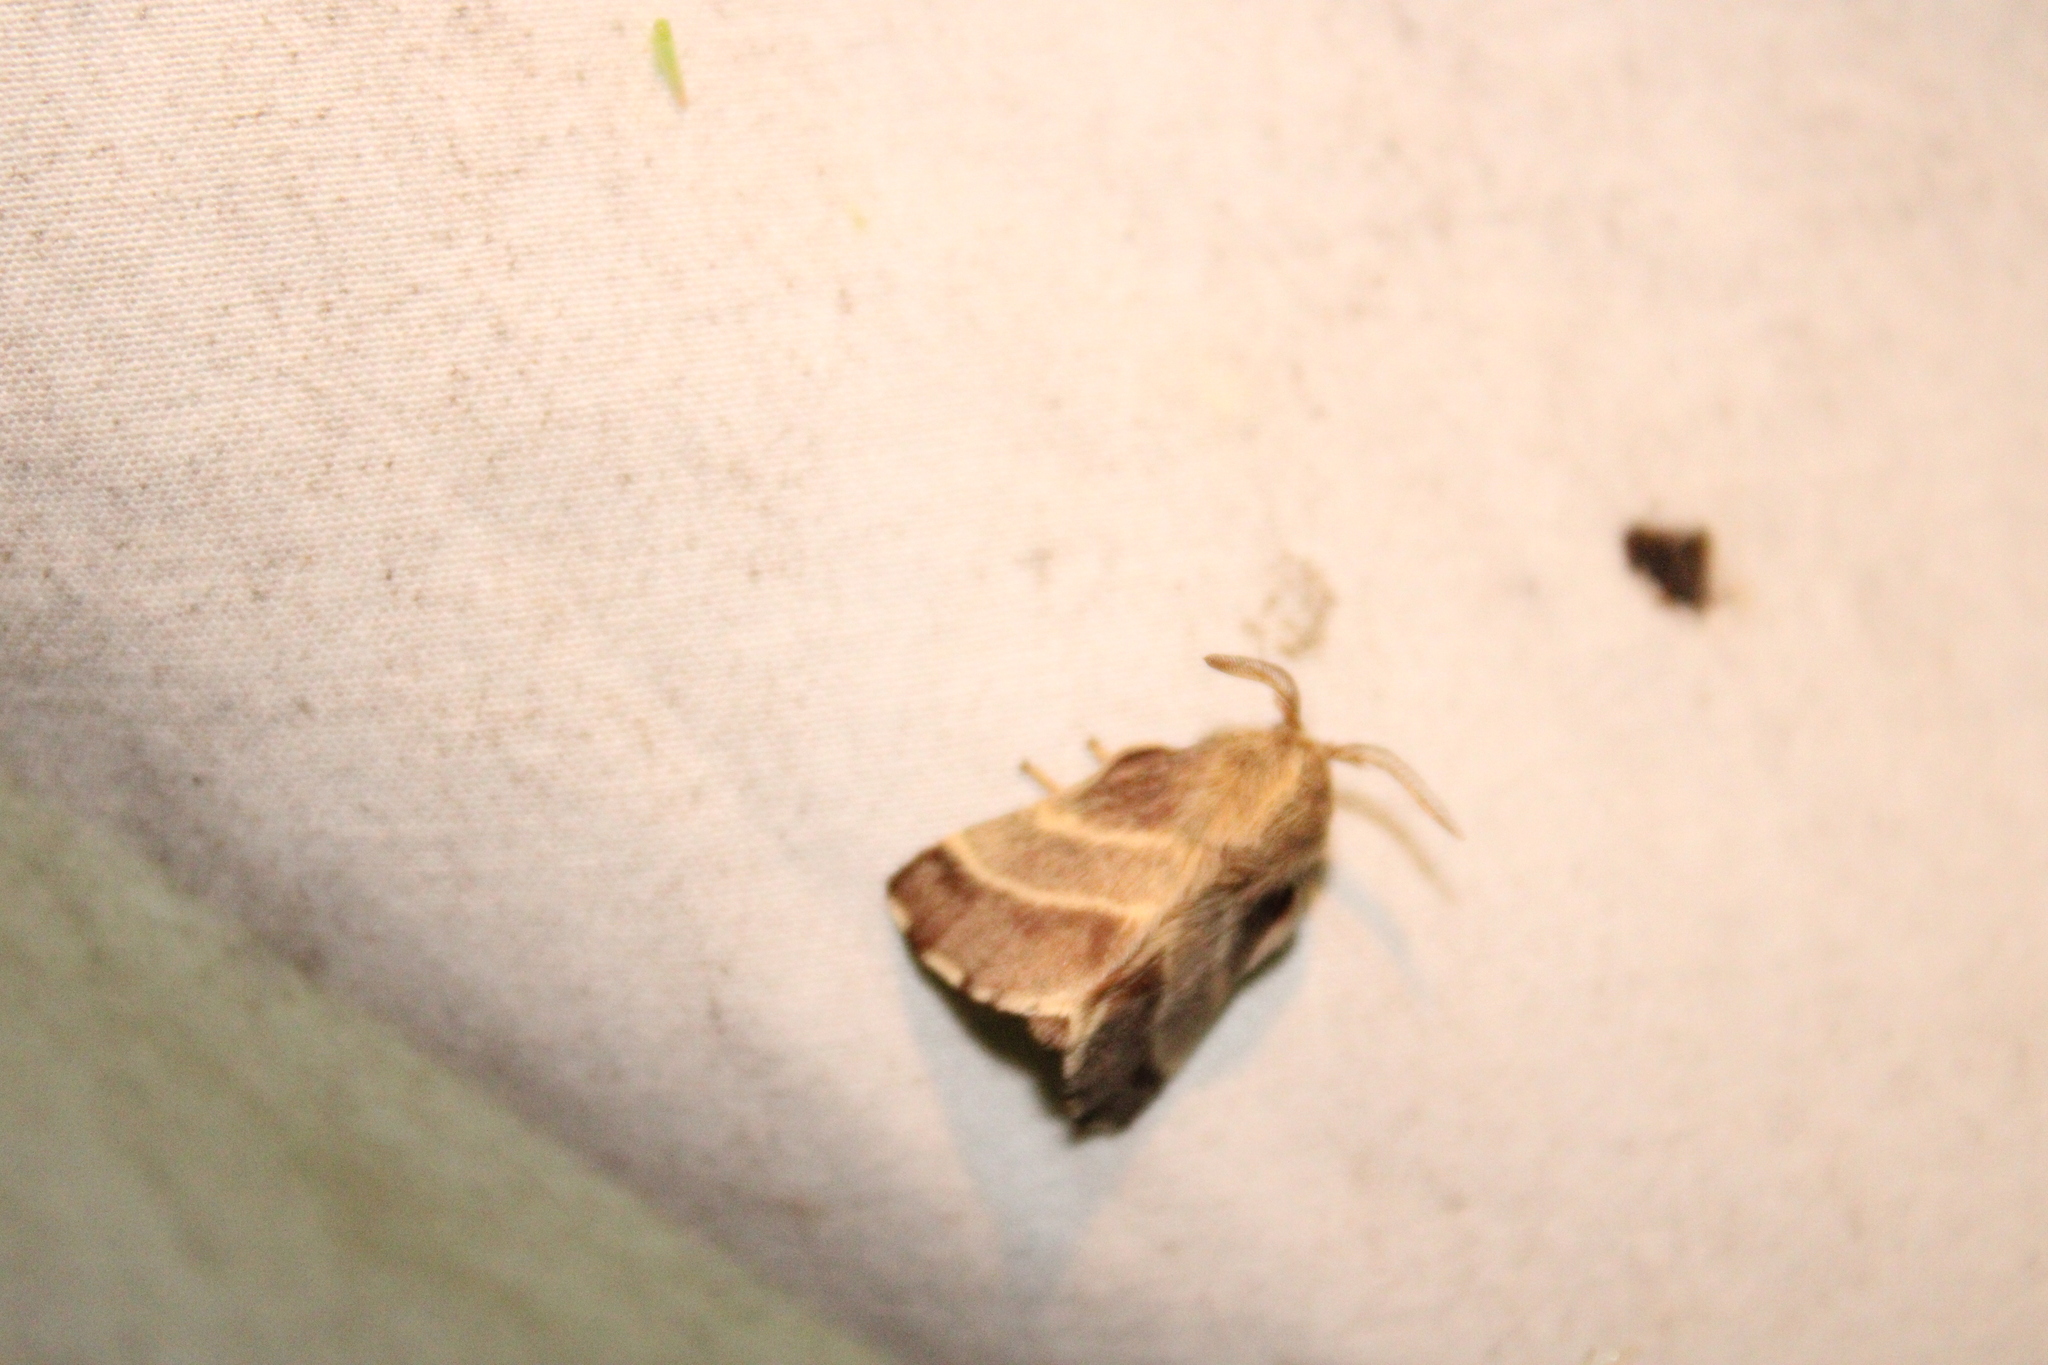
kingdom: Animalia
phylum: Arthropoda
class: Insecta
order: Lepidoptera
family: Lasiocampidae
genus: Malacosoma
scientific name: Malacosoma americana
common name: Eastern tent caterpillar moth
